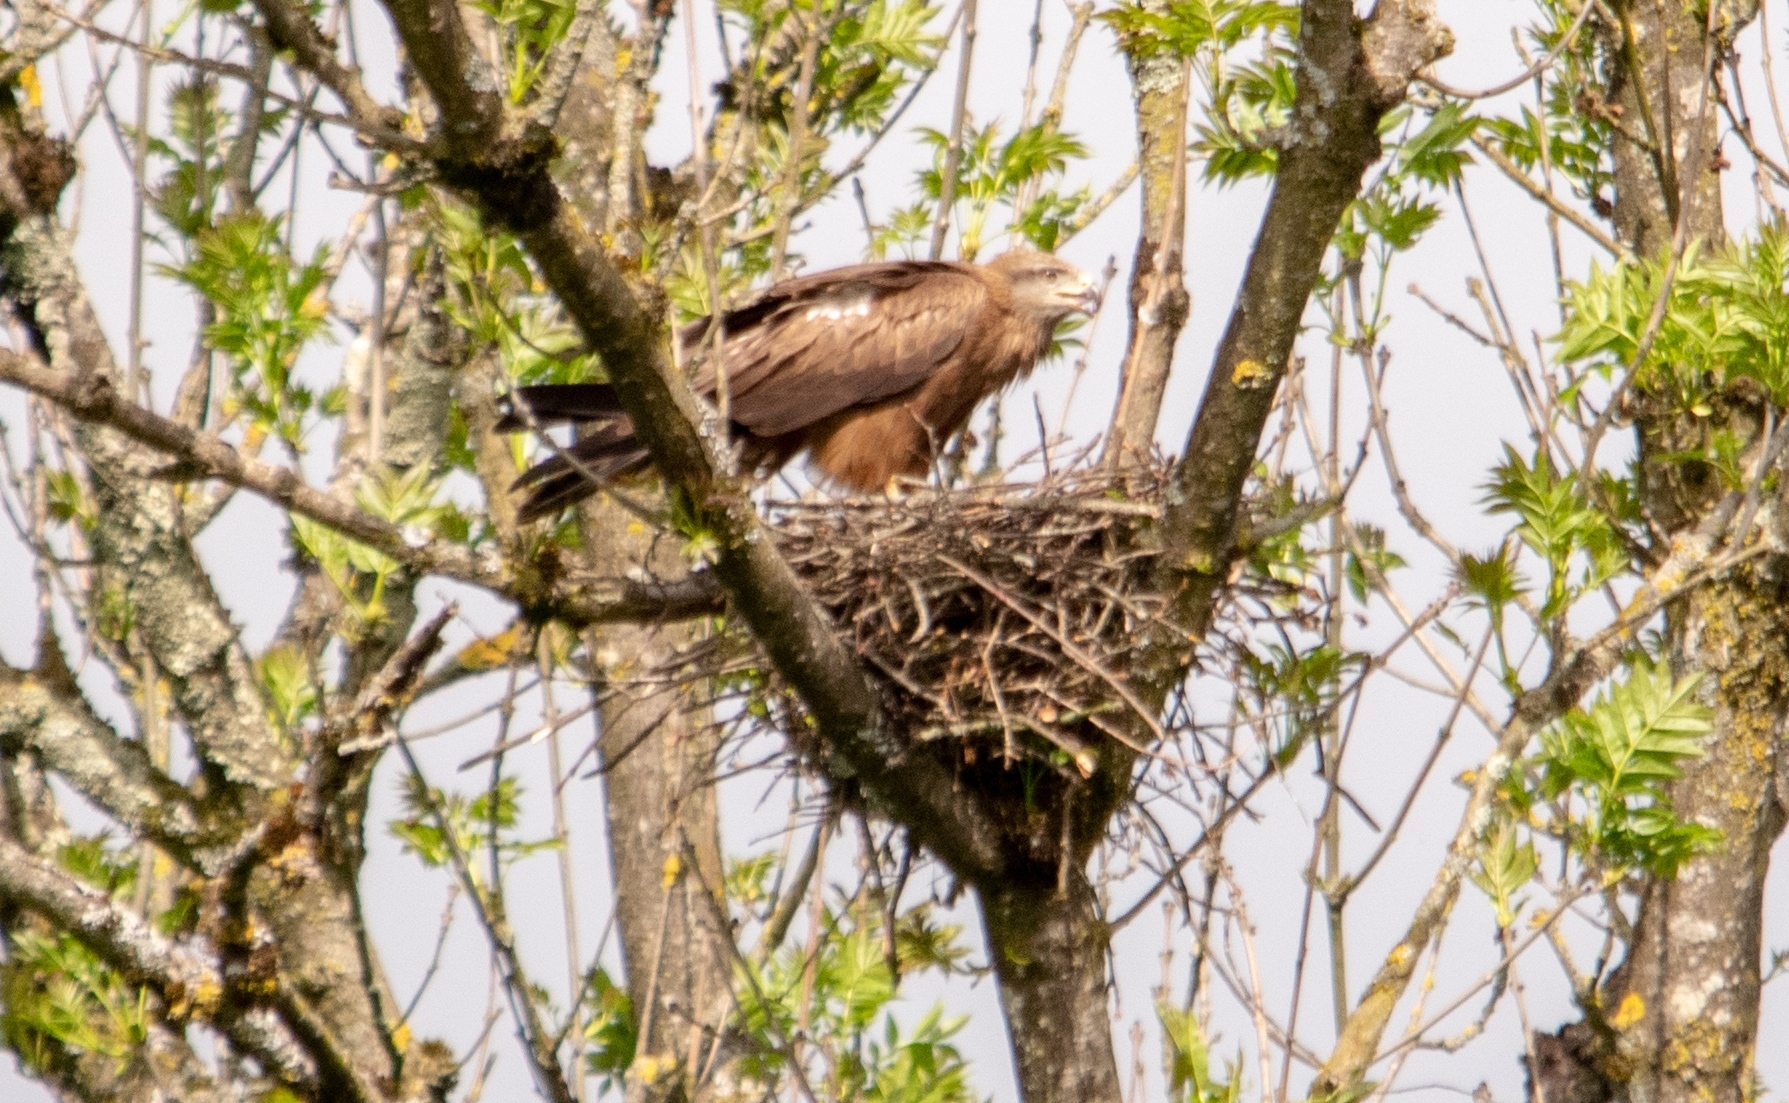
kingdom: Animalia
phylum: Chordata
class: Aves
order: Accipitriformes
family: Accipitridae
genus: Milvus
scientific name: Milvus migrans
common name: Black kite
